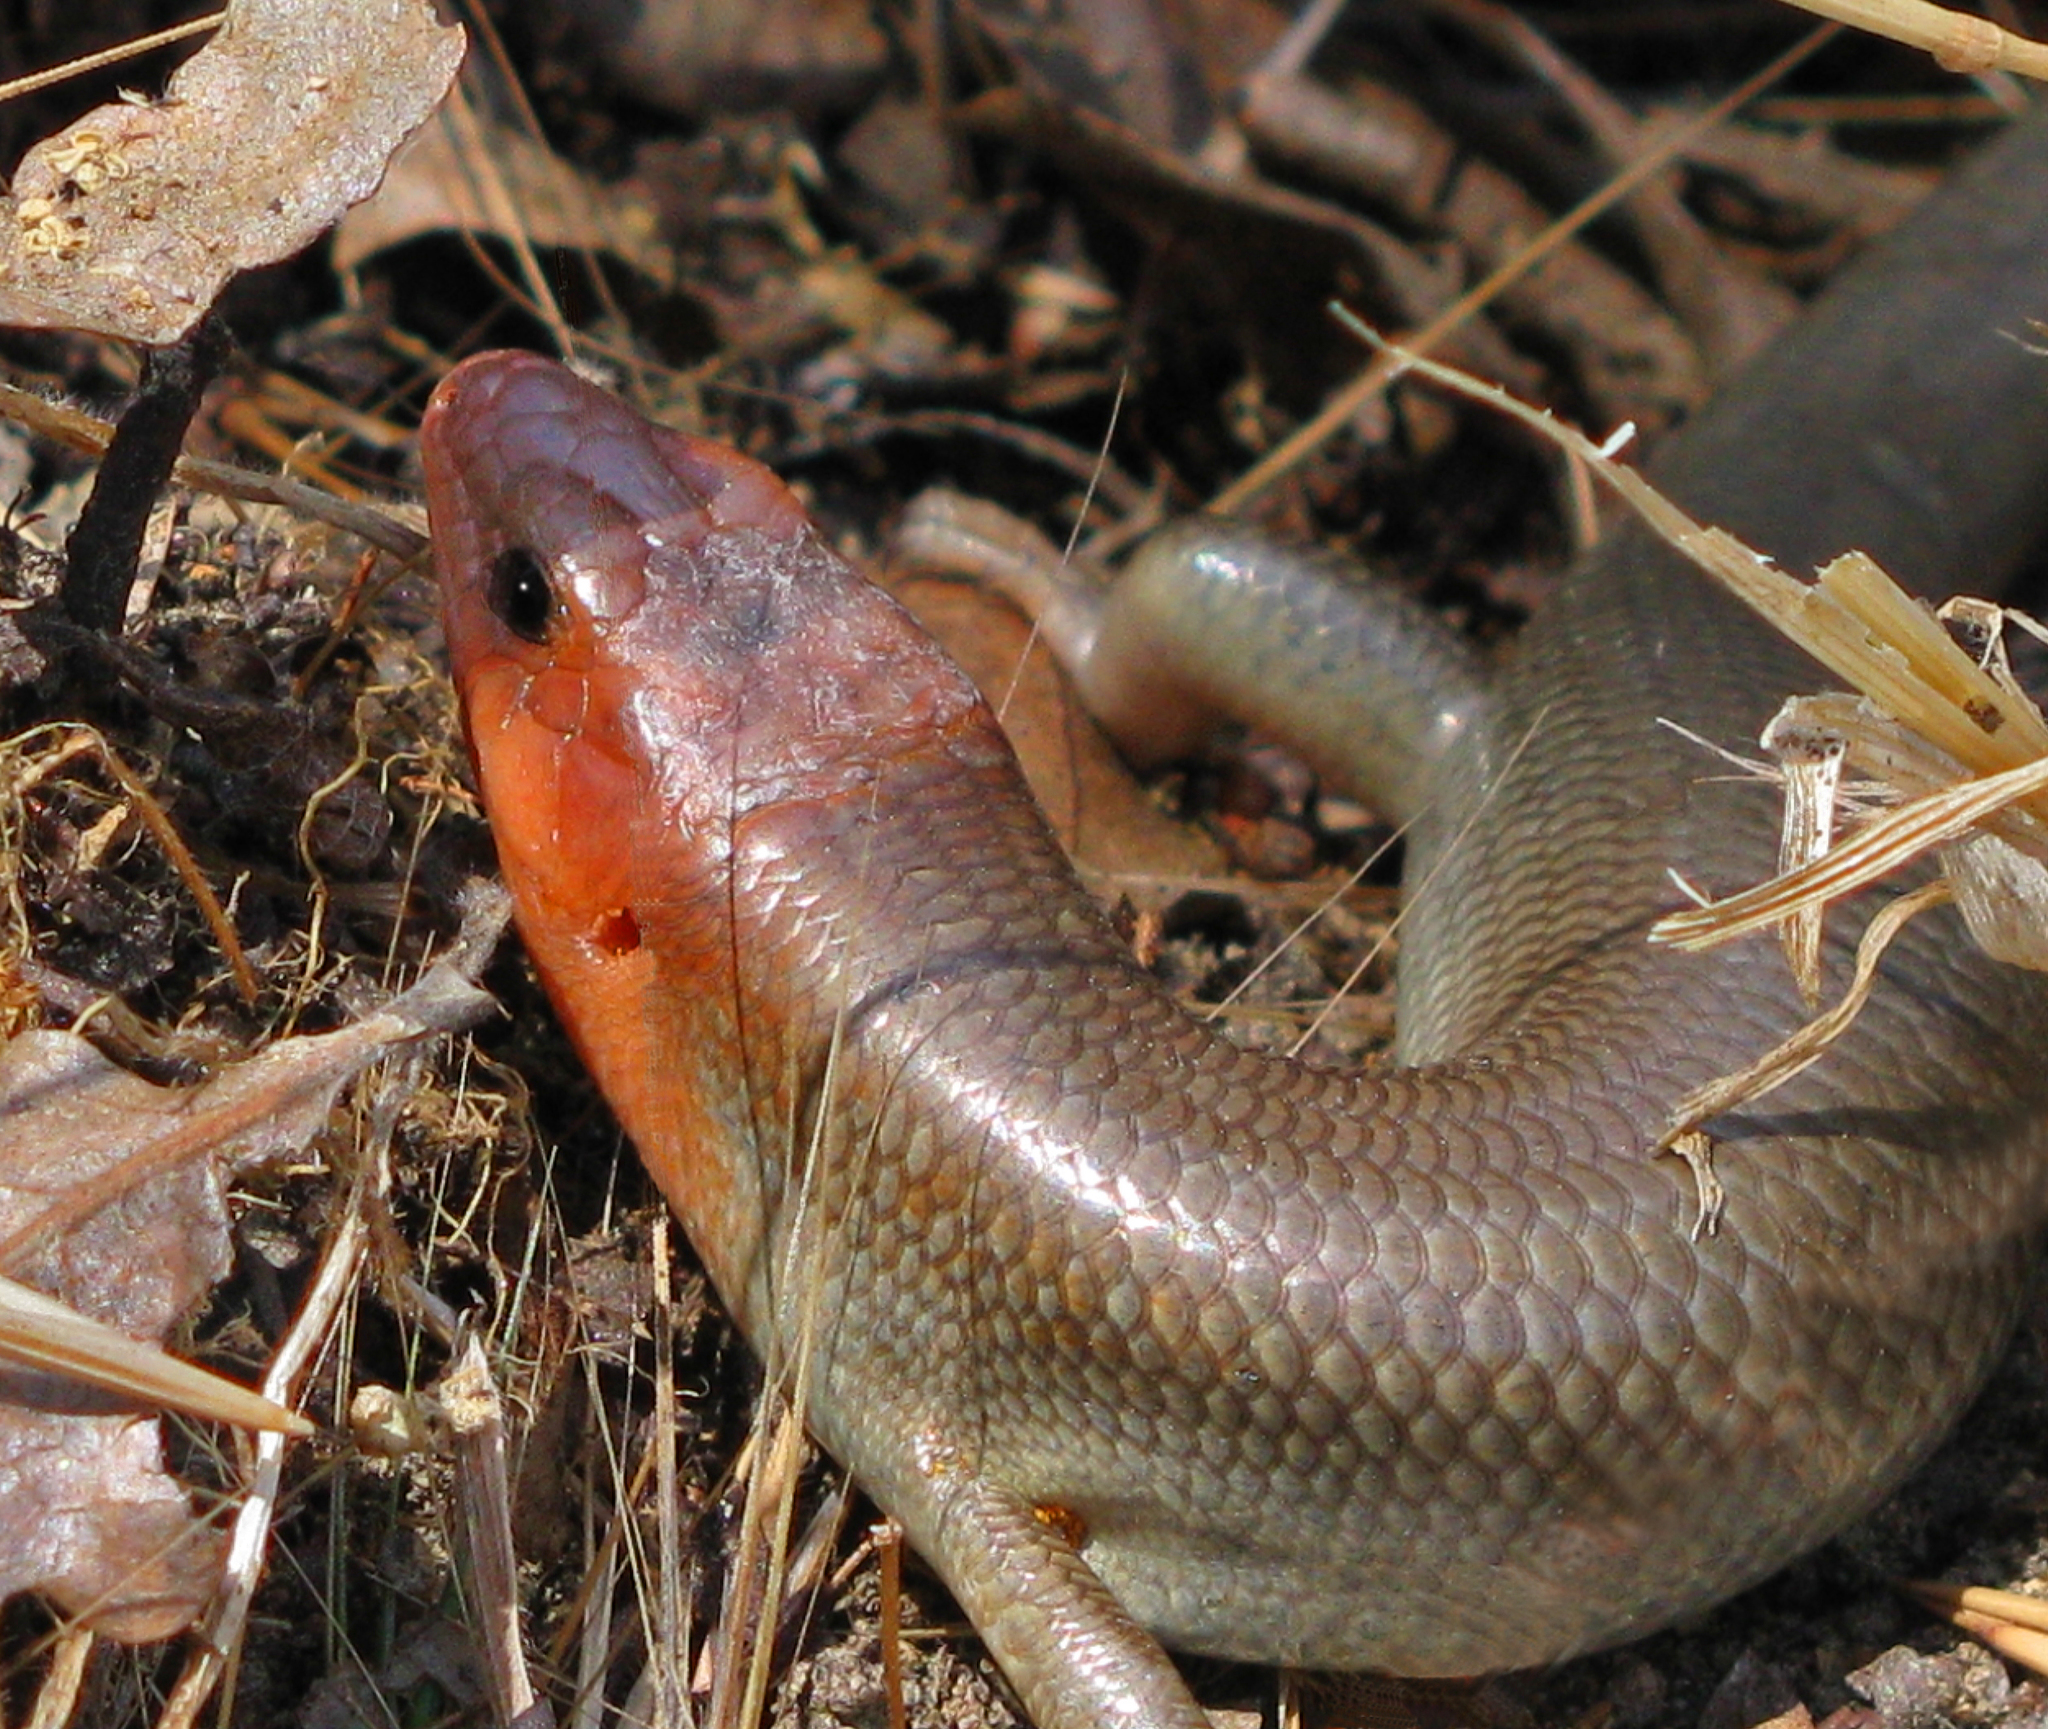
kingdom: Animalia
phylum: Chordata
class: Squamata
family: Scincidae
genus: Plestiodon
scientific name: Plestiodon gilberti
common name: Gilbert's skink
